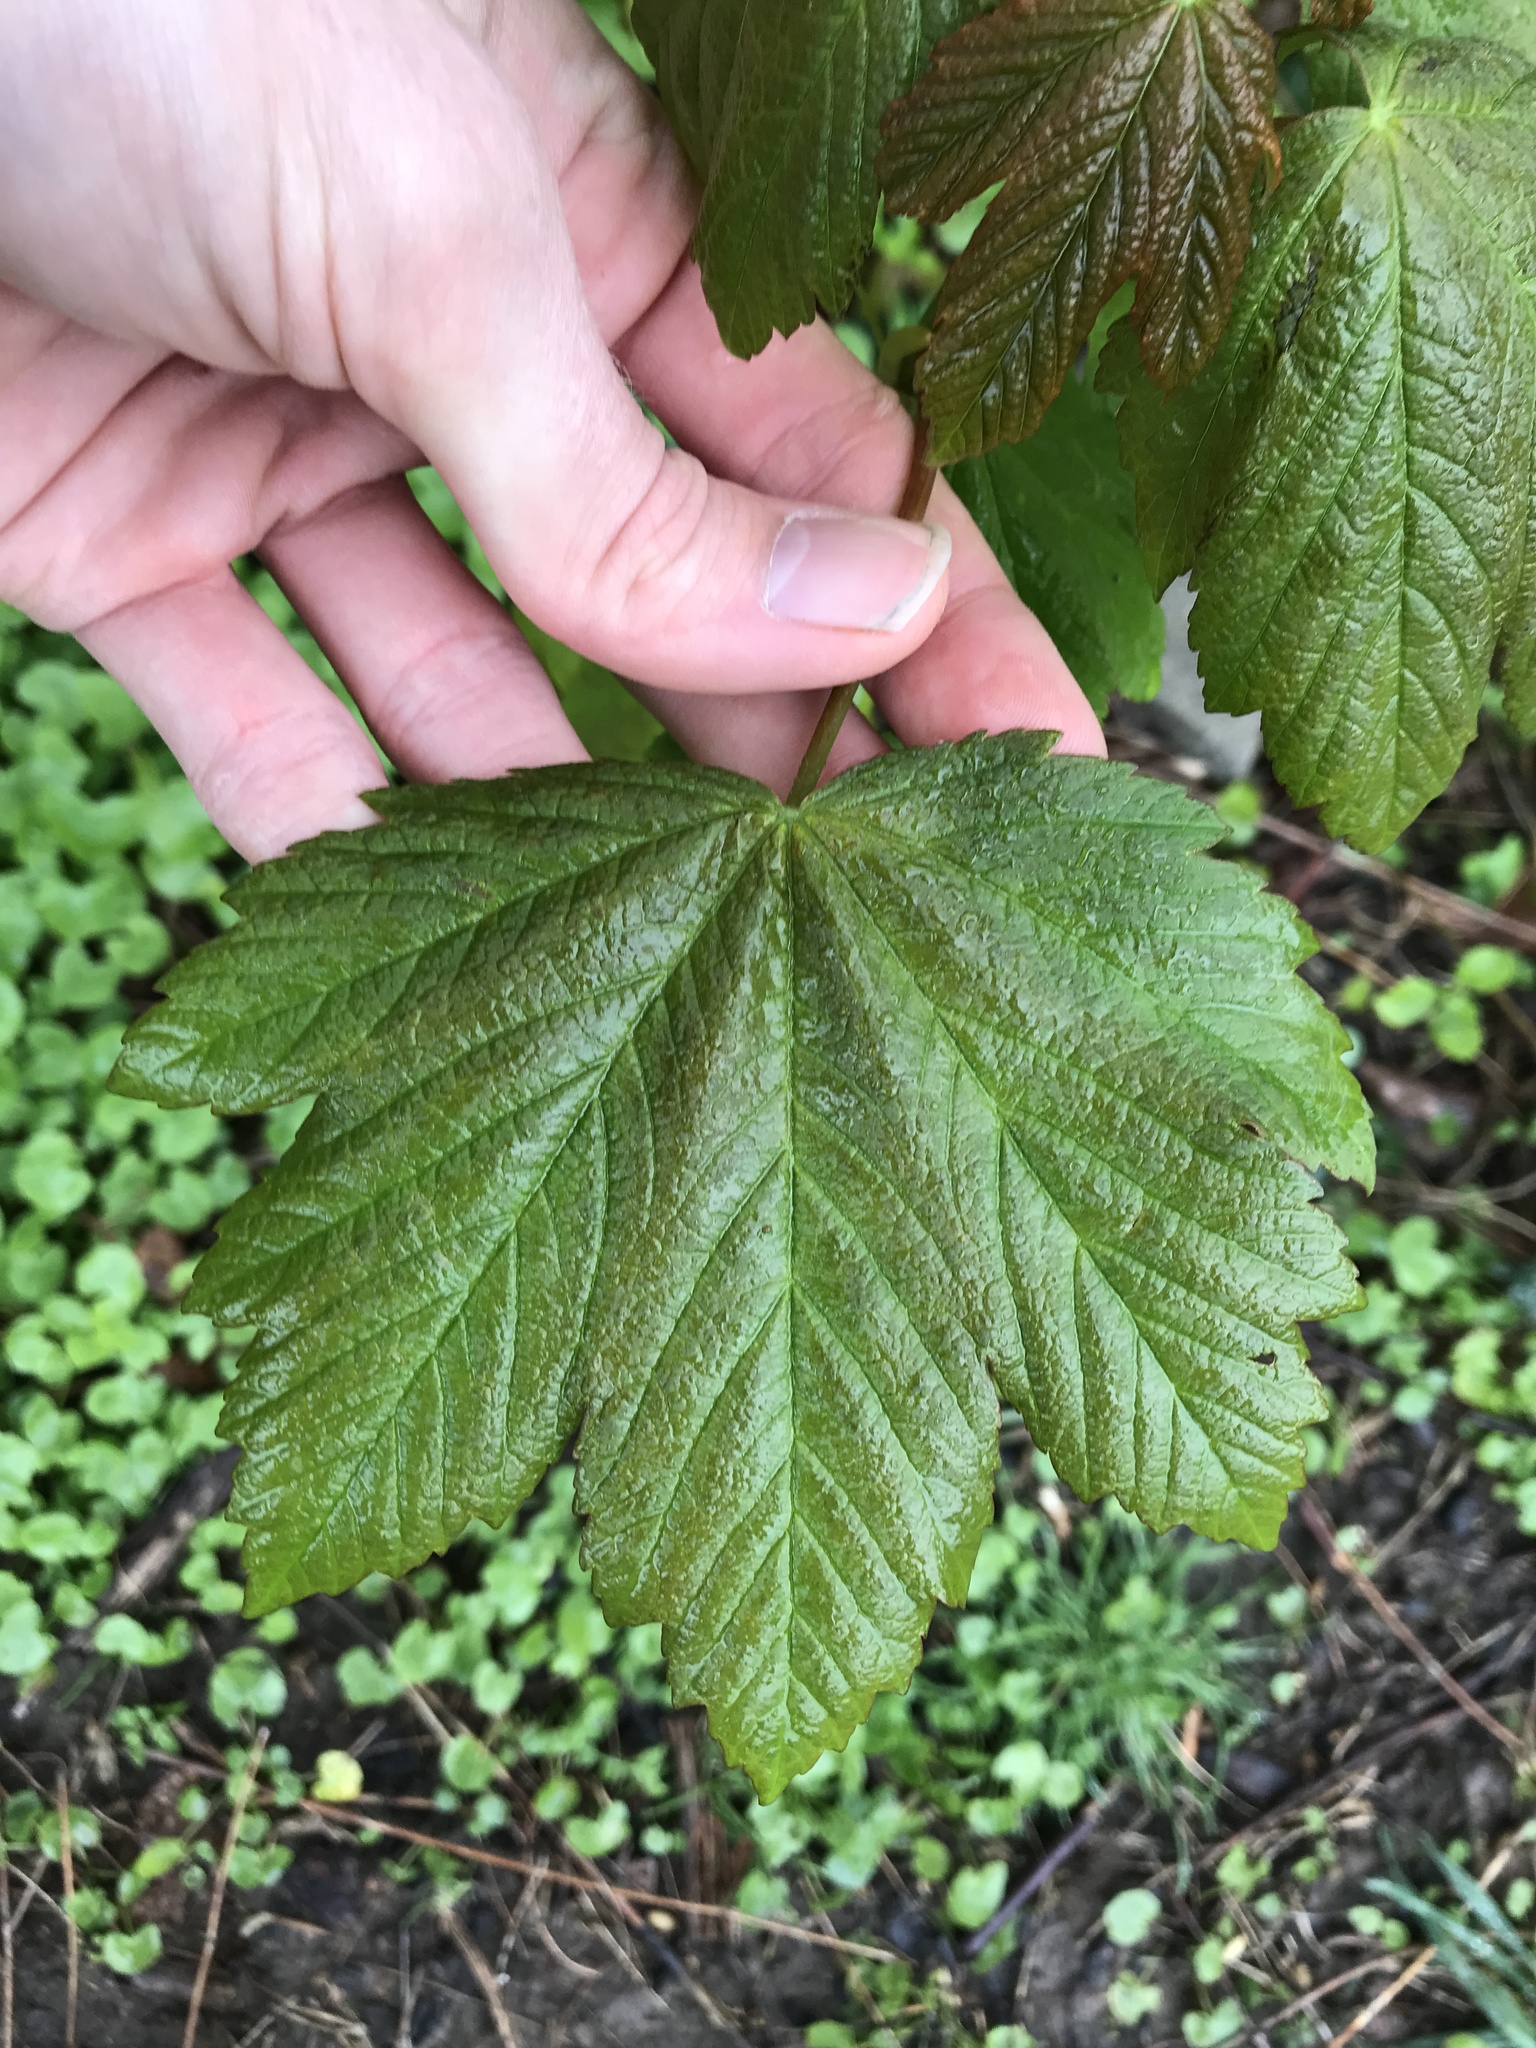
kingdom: Plantae
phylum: Tracheophyta
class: Magnoliopsida
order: Sapindales
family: Sapindaceae
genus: Acer
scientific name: Acer pseudoplatanus
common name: Sycamore
